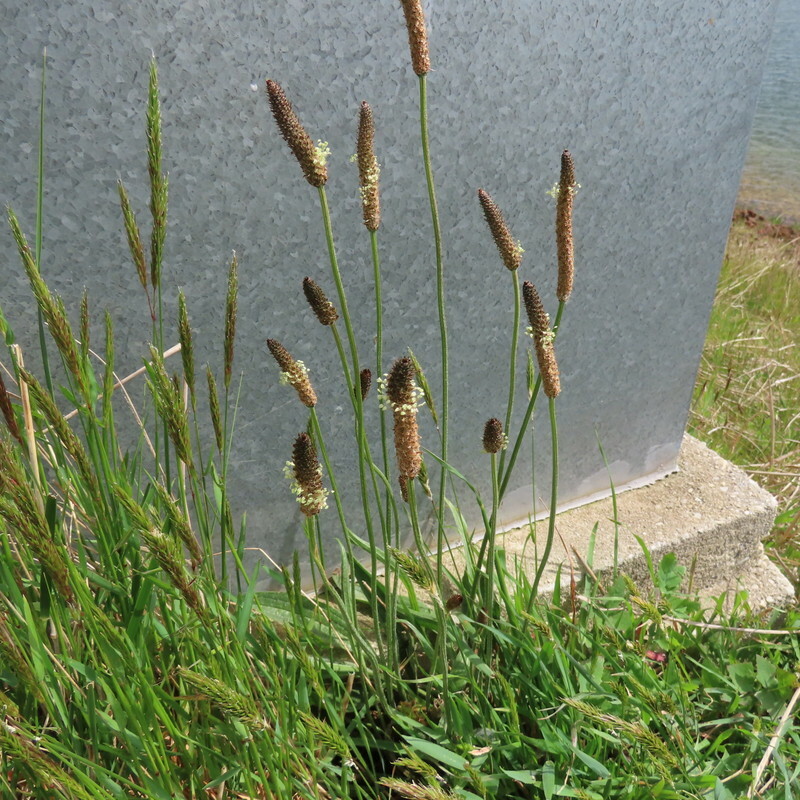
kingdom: Plantae
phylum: Tracheophyta
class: Magnoliopsida
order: Lamiales
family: Plantaginaceae
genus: Plantago
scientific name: Plantago lanceolata
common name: Ribwort plantain
